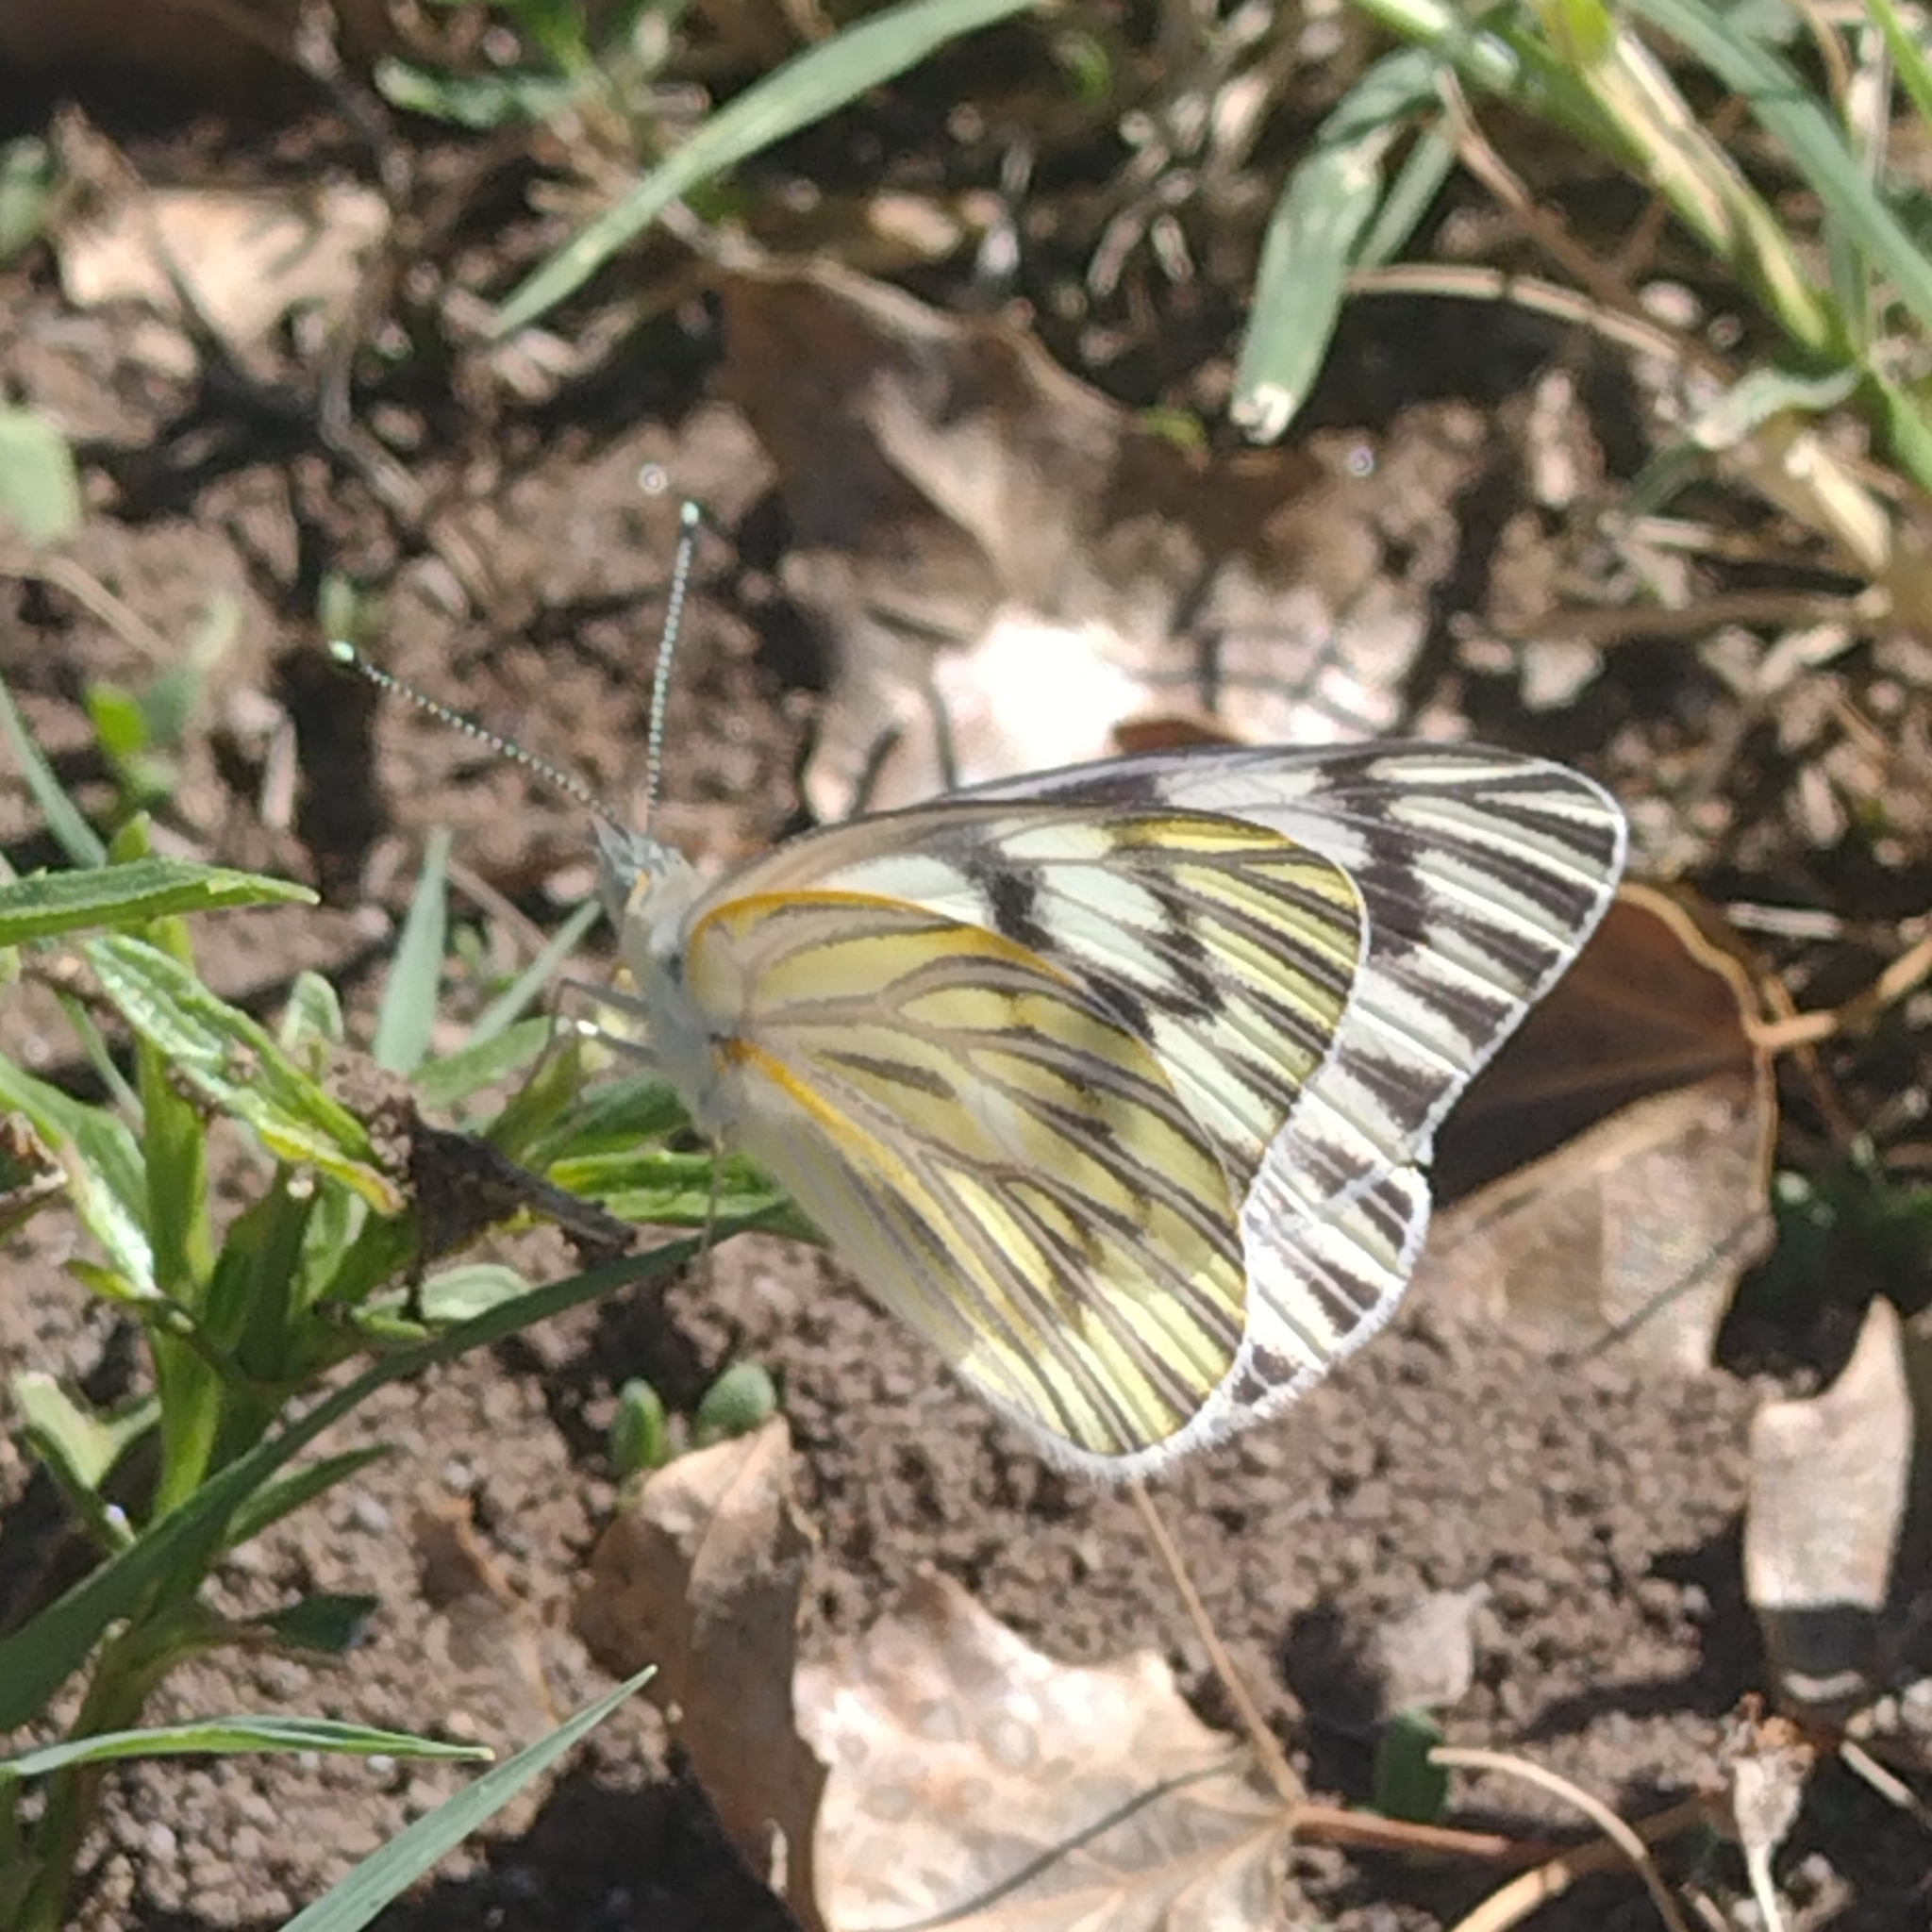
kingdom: Animalia
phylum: Arthropoda
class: Insecta
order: Lepidoptera
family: Pieridae
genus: Tatochila
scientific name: Tatochila mercedis
